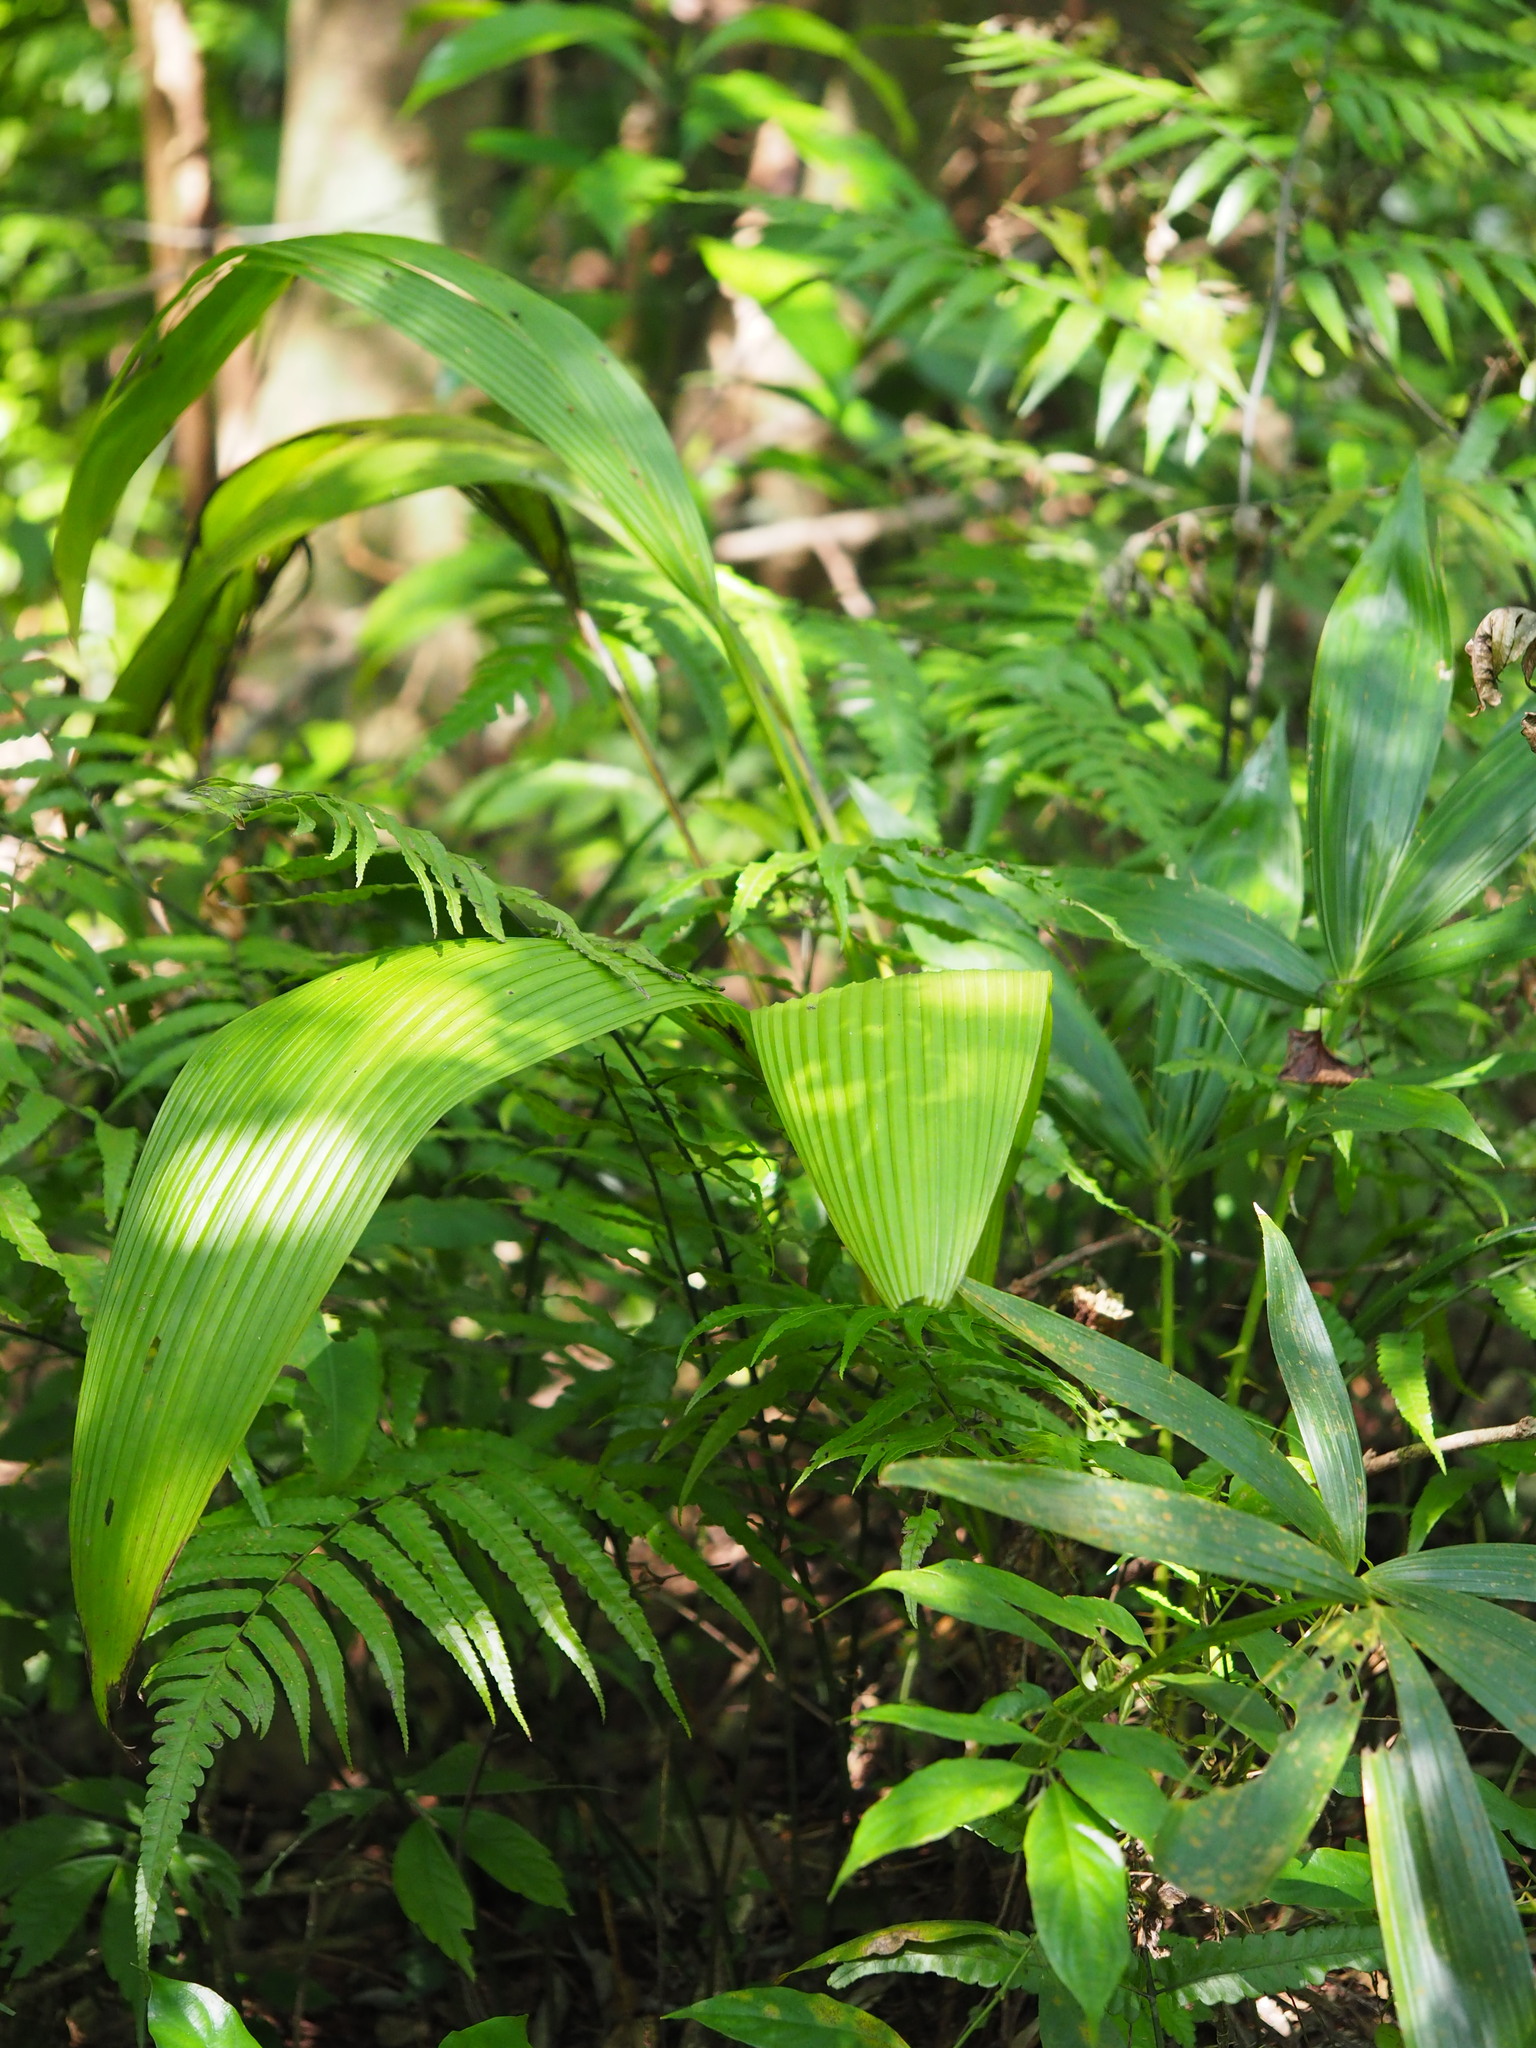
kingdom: Plantae
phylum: Tracheophyta
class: Liliopsida
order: Asparagales
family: Hypoxidaceae
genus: Curculigo
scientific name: Curculigo capitulata
